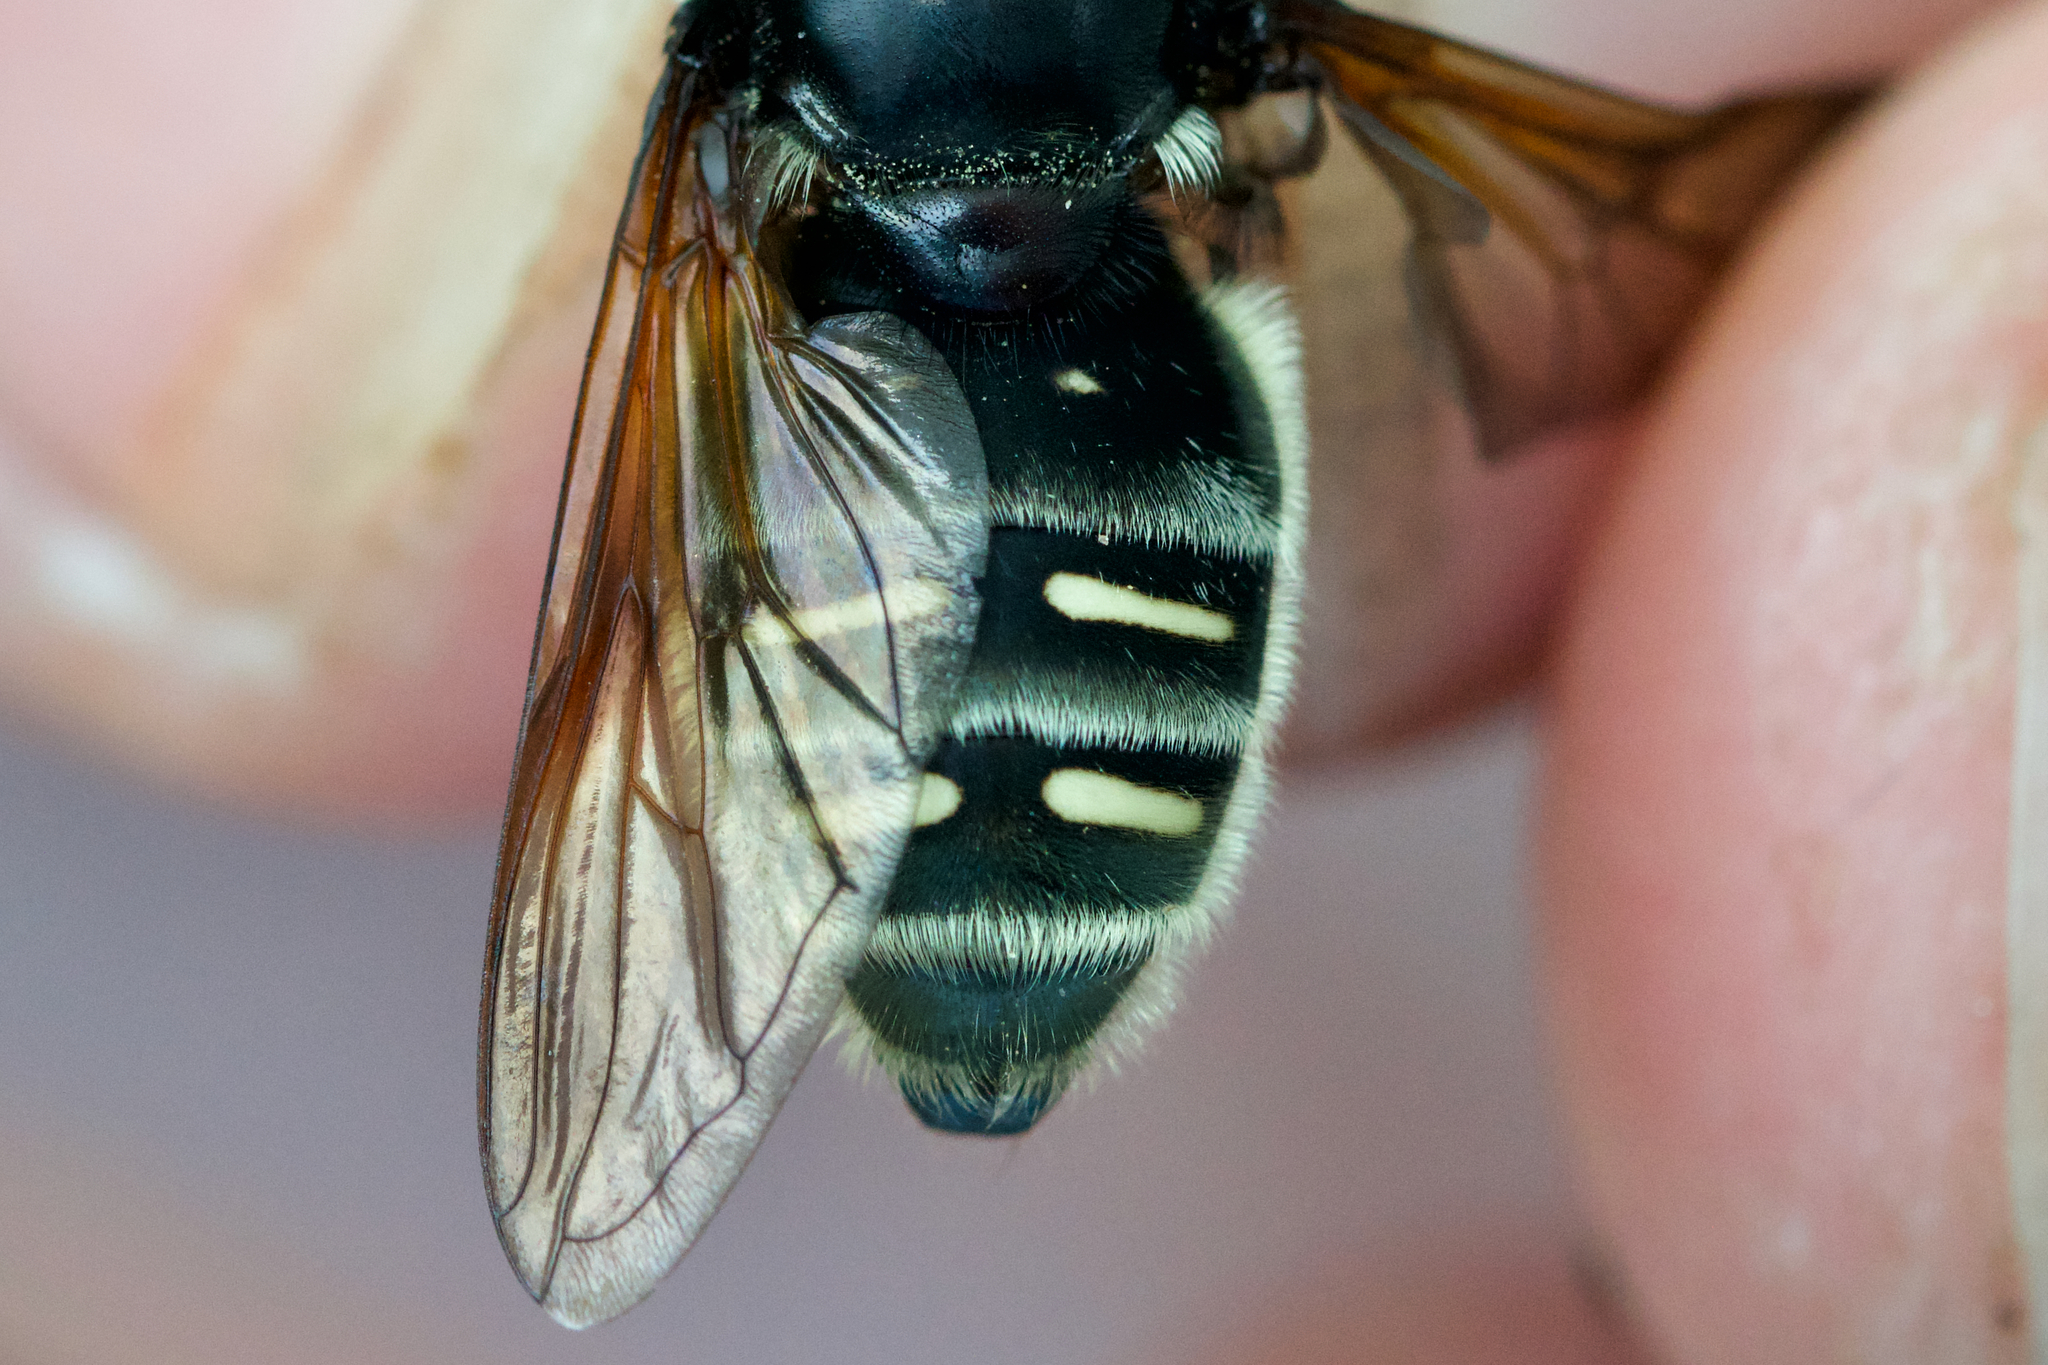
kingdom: Animalia
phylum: Arthropoda
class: Insecta
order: Diptera
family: Syrphidae
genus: Sericomyia
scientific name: Sericomyia militaris
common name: Narrow-banded pond fly
